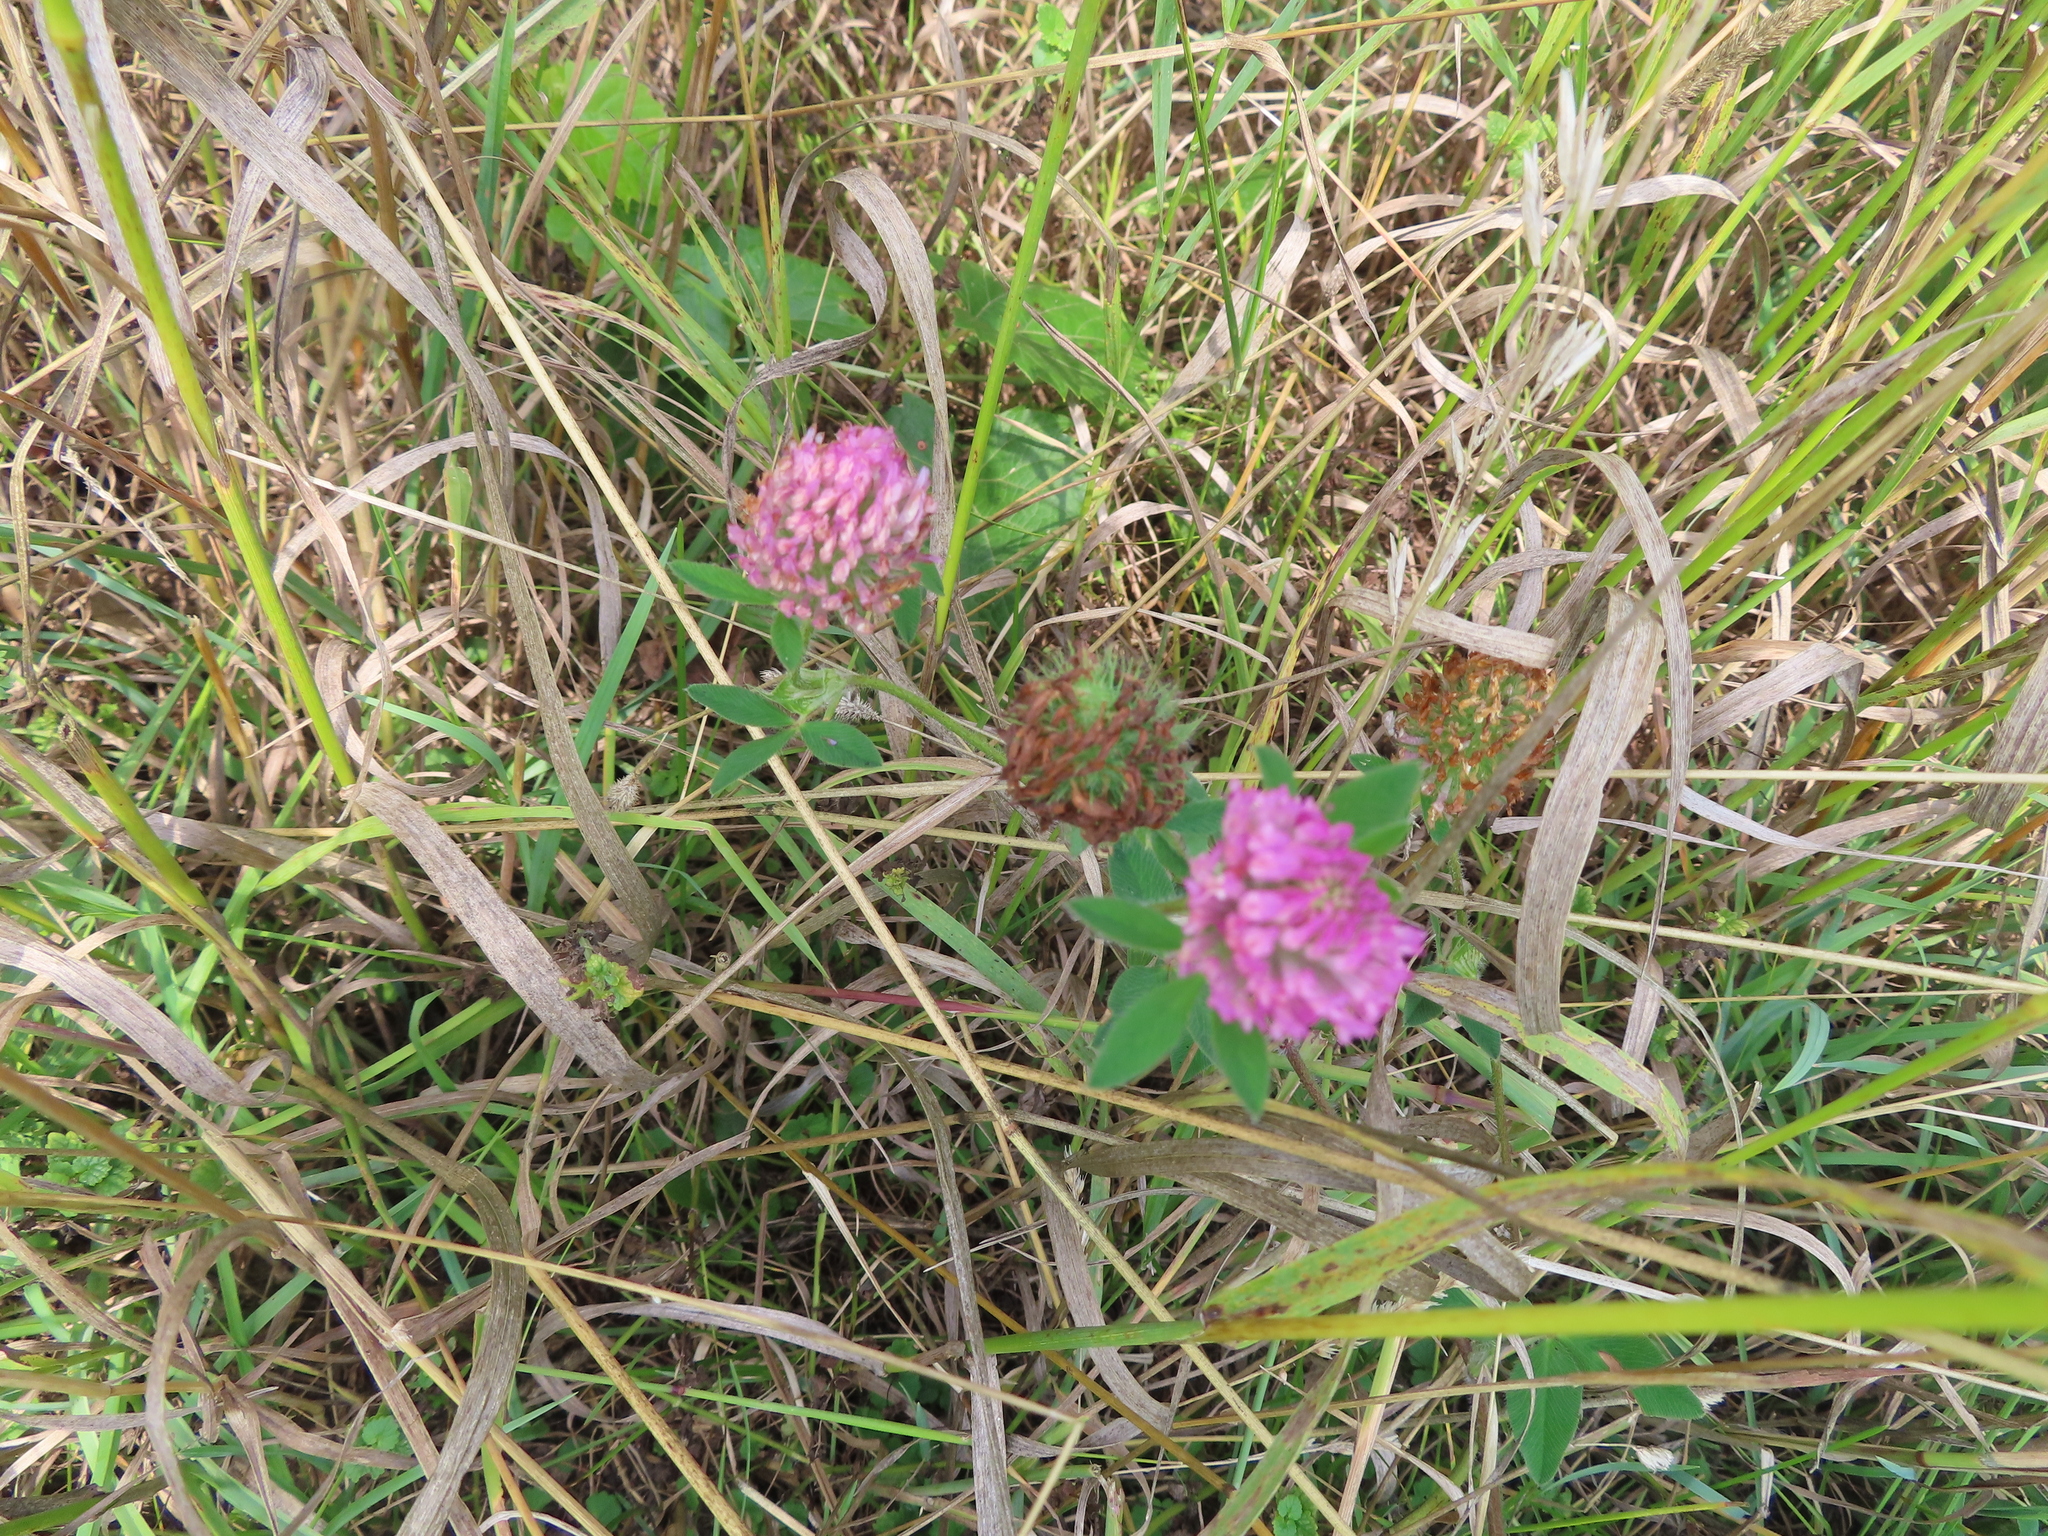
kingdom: Plantae
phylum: Tracheophyta
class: Magnoliopsida
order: Fabales
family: Fabaceae
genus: Trifolium
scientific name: Trifolium pratense
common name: Red clover
